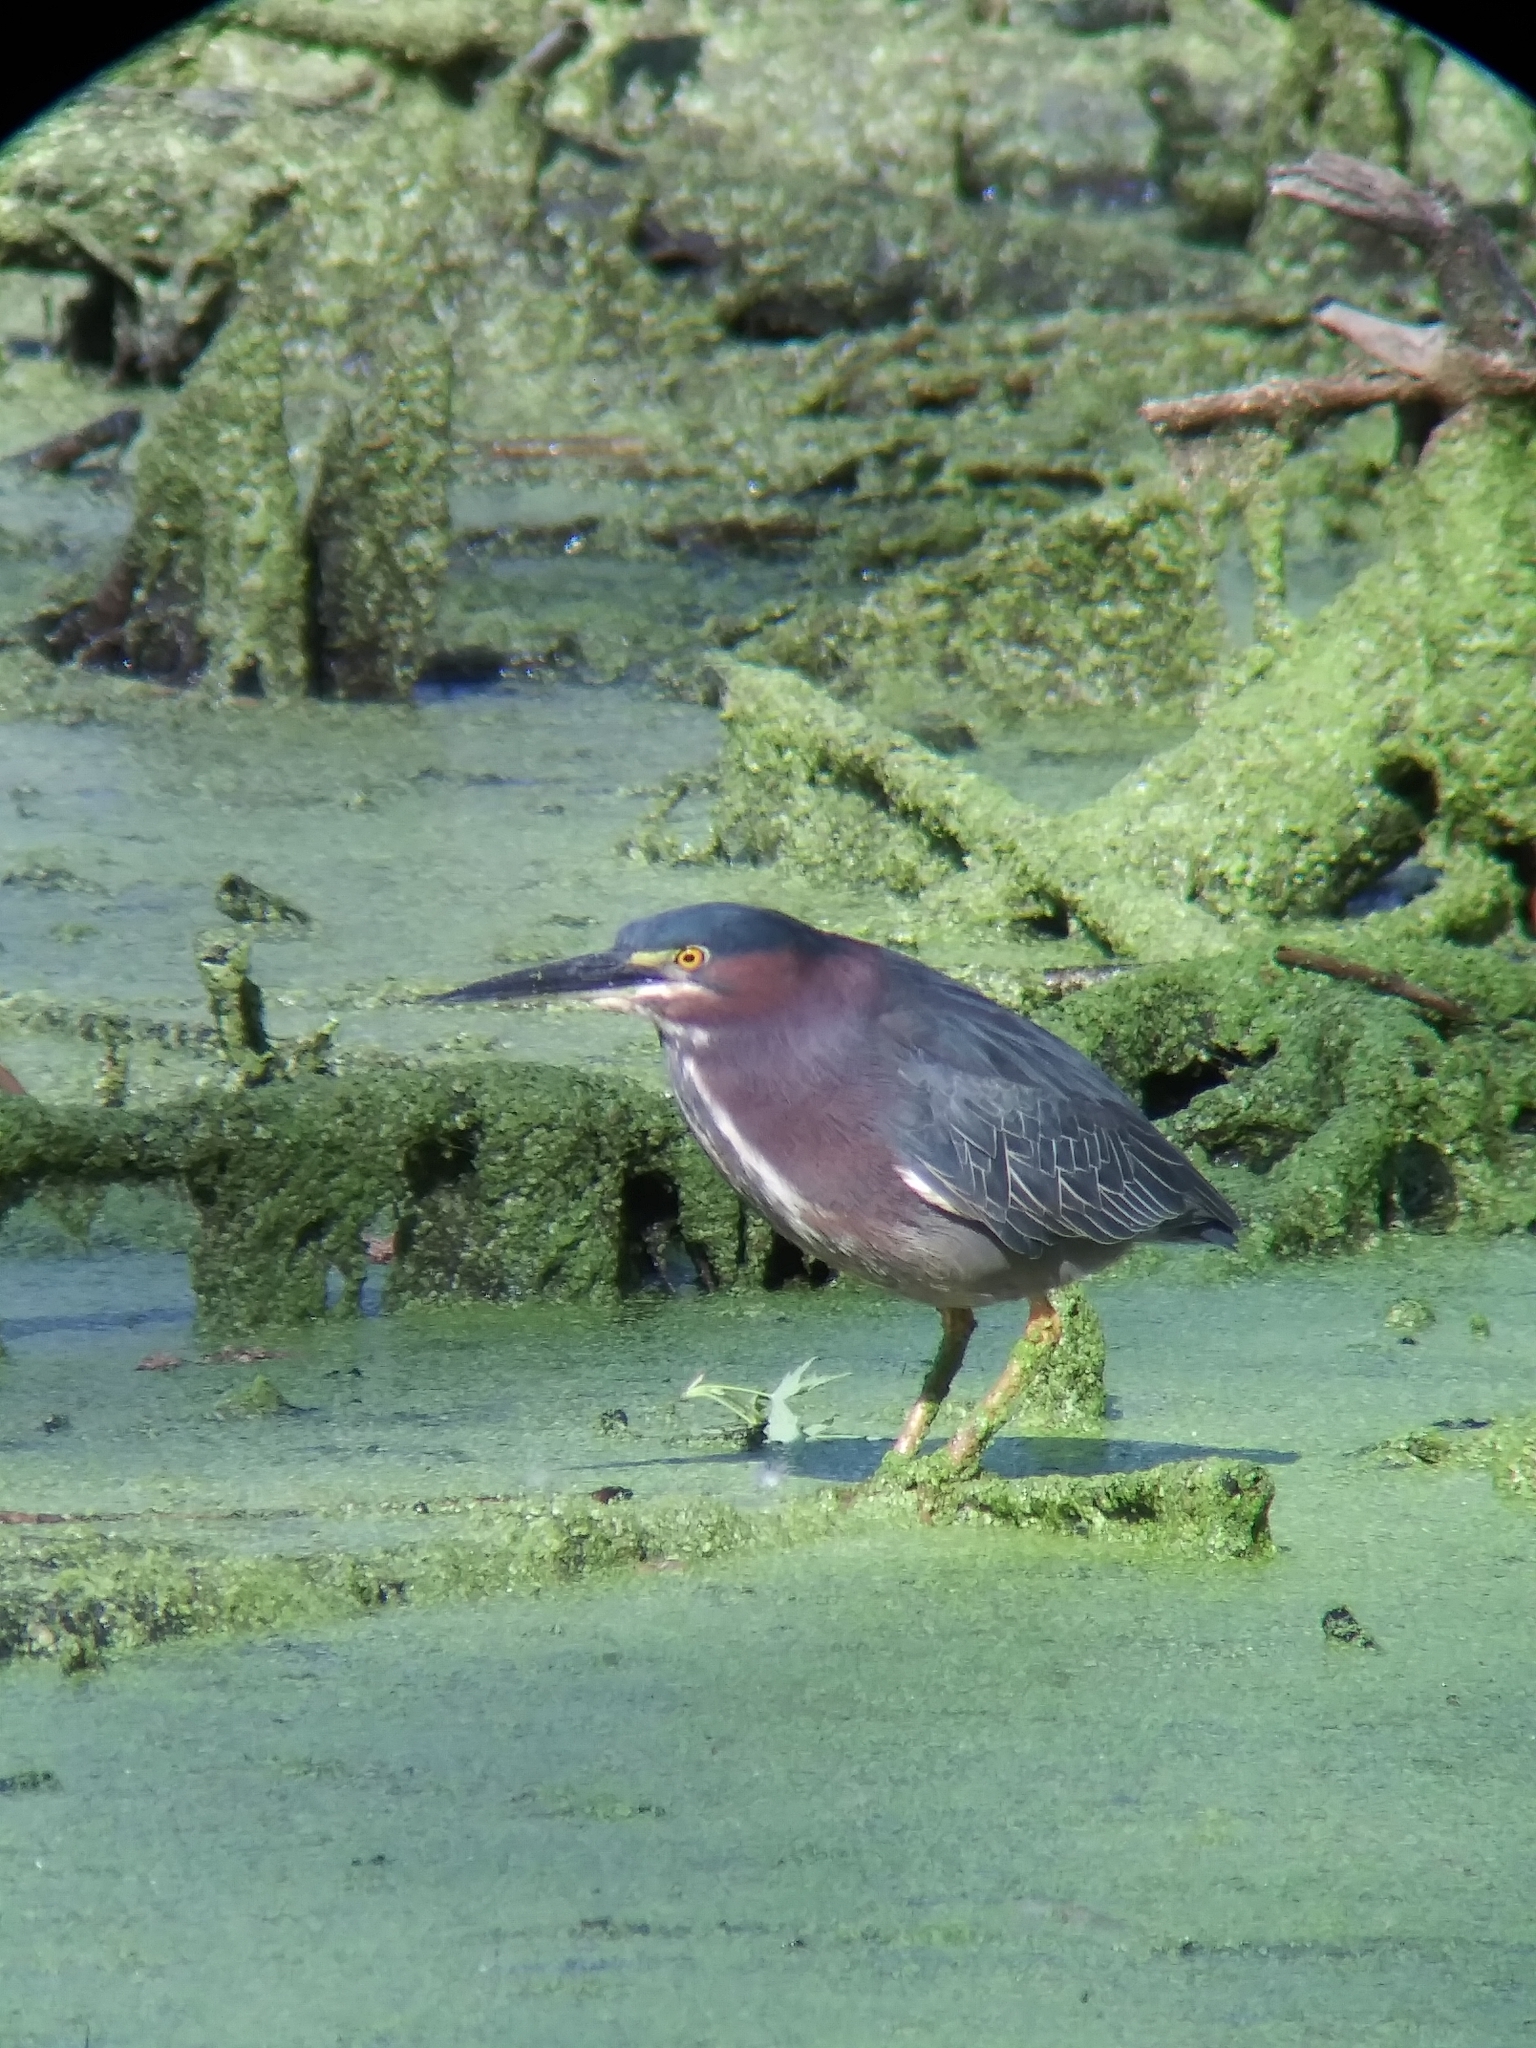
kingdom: Animalia
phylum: Chordata
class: Aves
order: Pelecaniformes
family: Ardeidae
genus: Butorides
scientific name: Butorides virescens
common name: Green heron
